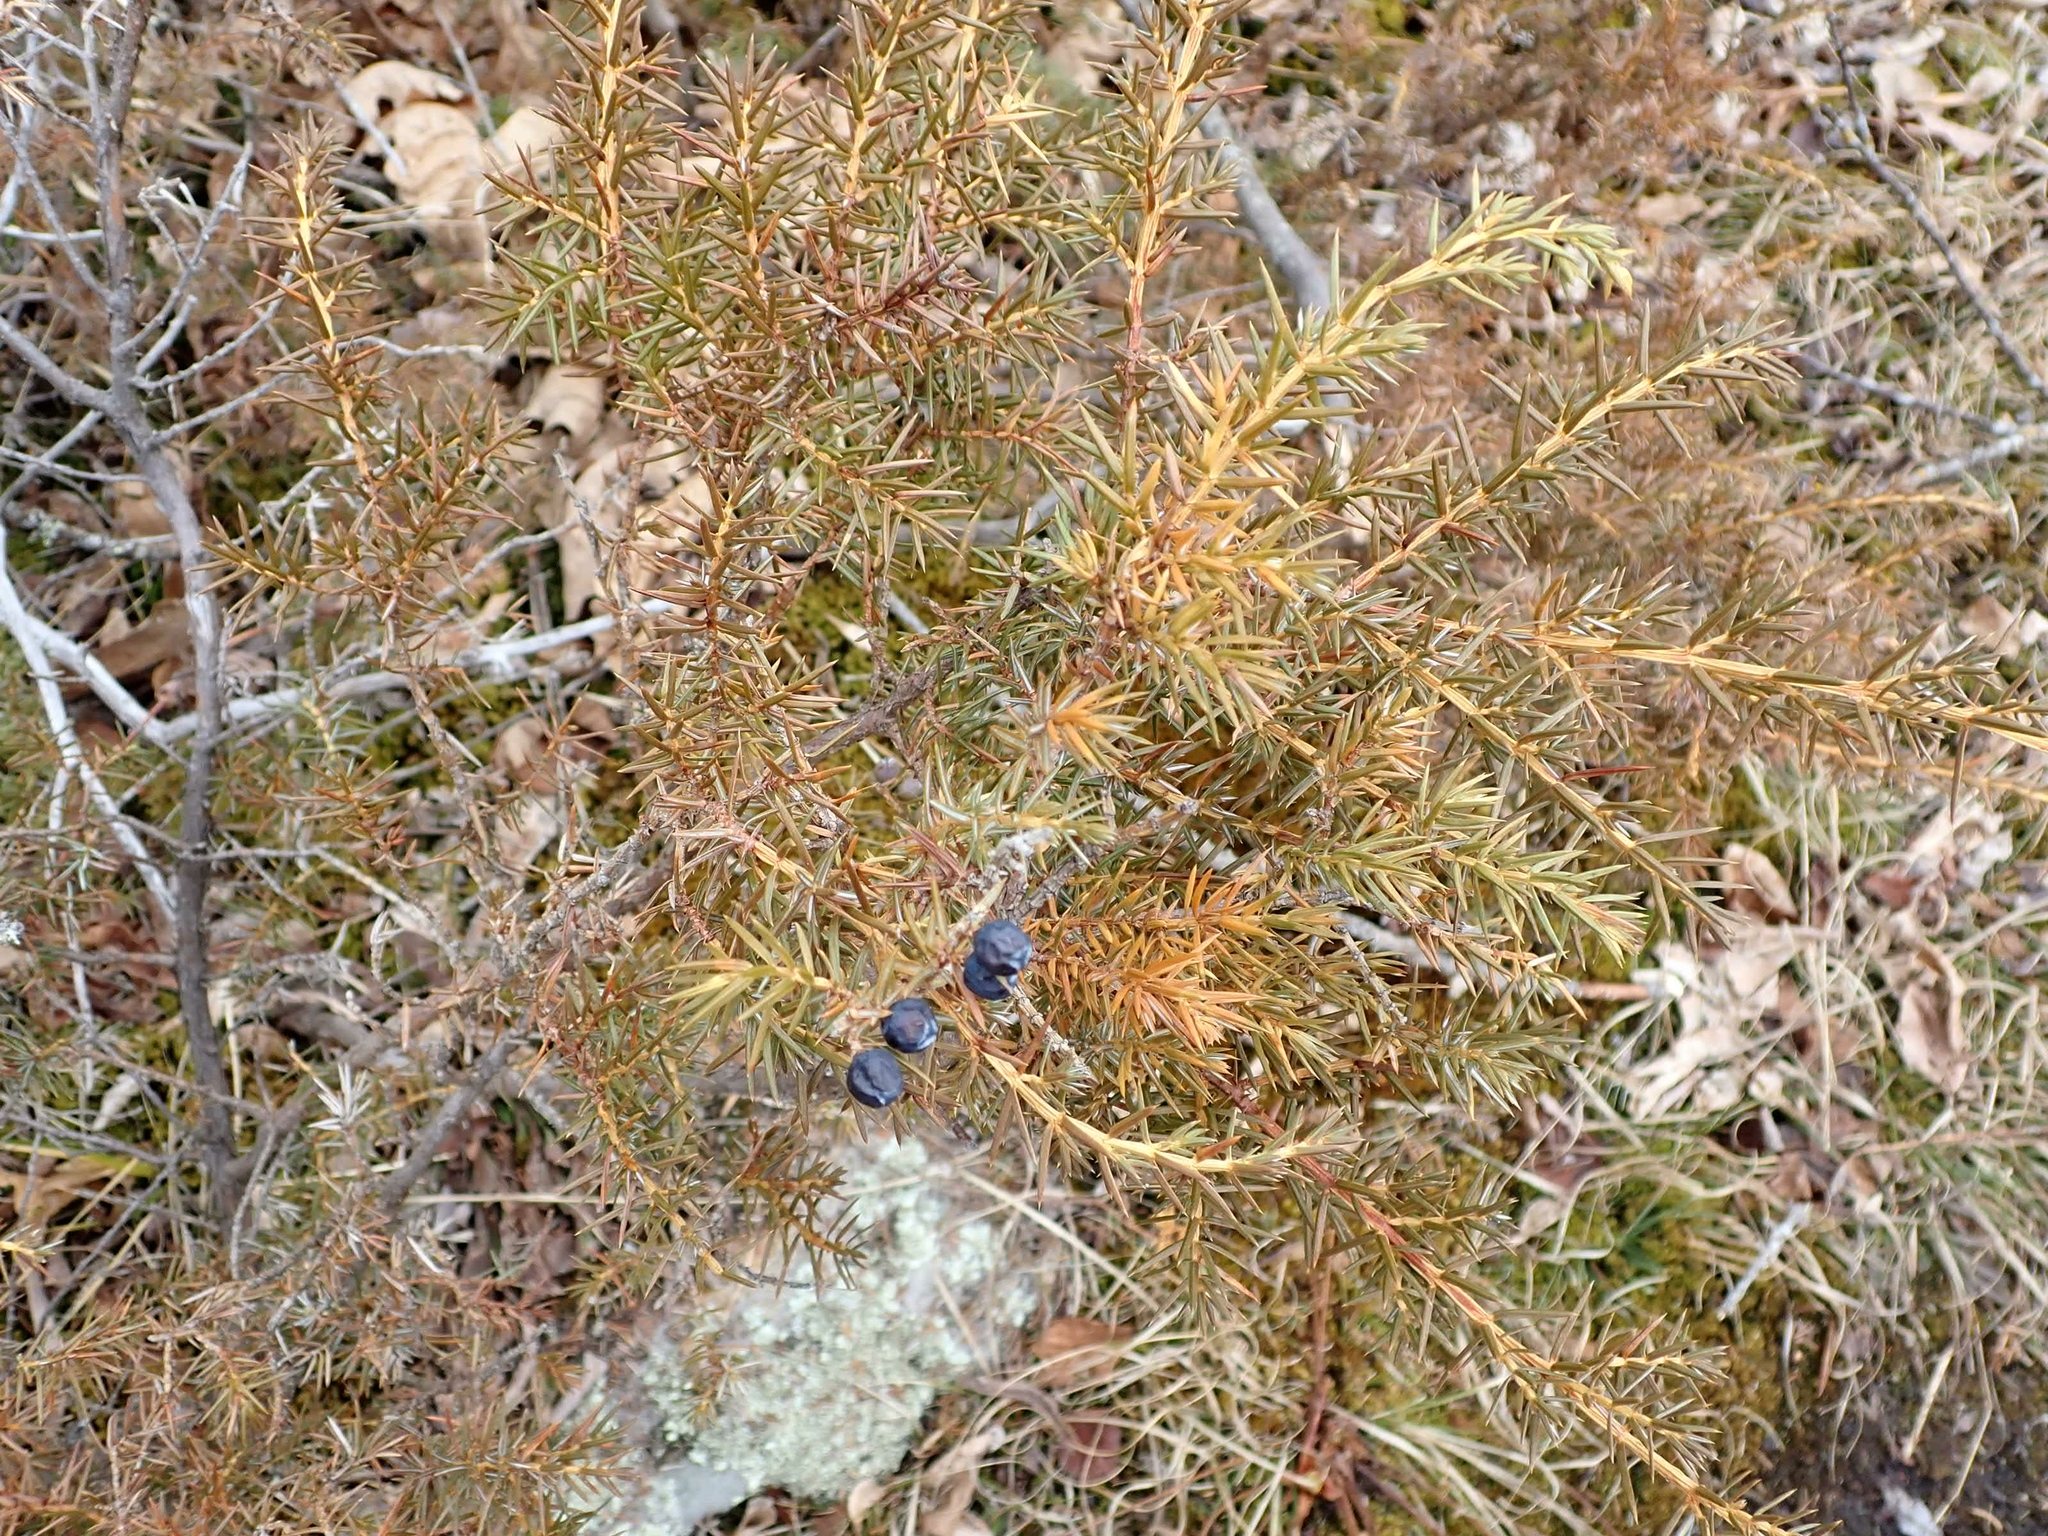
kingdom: Plantae
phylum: Tracheophyta
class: Pinopsida
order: Pinales
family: Cupressaceae
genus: Juniperus
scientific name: Juniperus communis
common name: Common juniper
